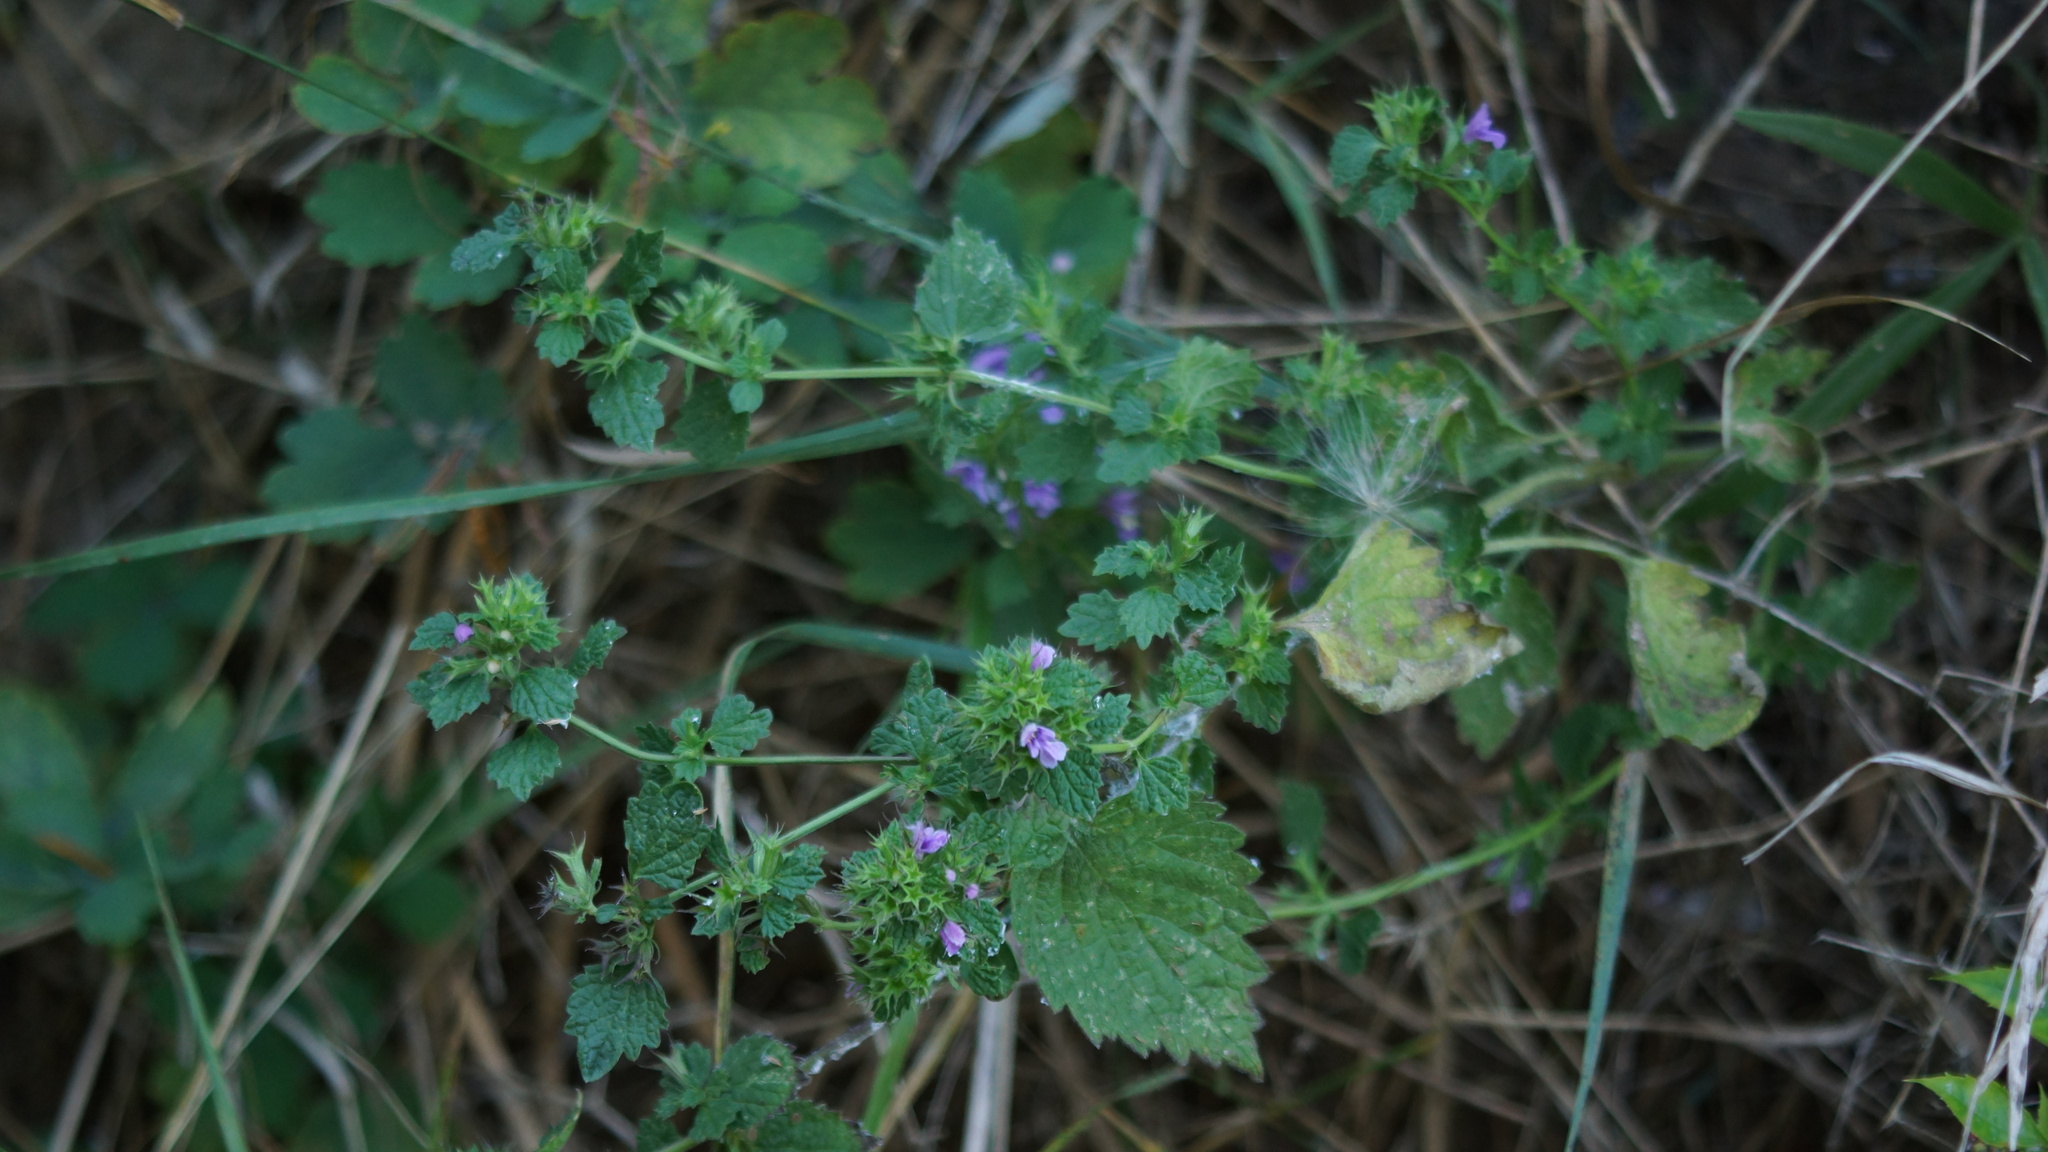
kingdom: Plantae
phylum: Tracheophyta
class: Magnoliopsida
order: Lamiales
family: Lamiaceae
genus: Ballota
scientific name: Ballota nigra
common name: Black horehound
